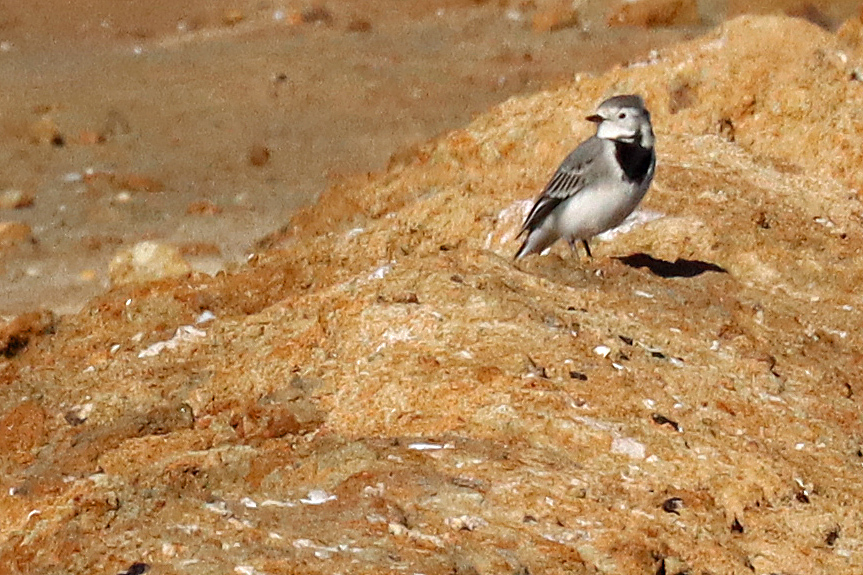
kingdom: Animalia
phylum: Chordata
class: Aves
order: Passeriformes
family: Motacillidae
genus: Motacilla
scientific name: Motacilla alba
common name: White wagtail
